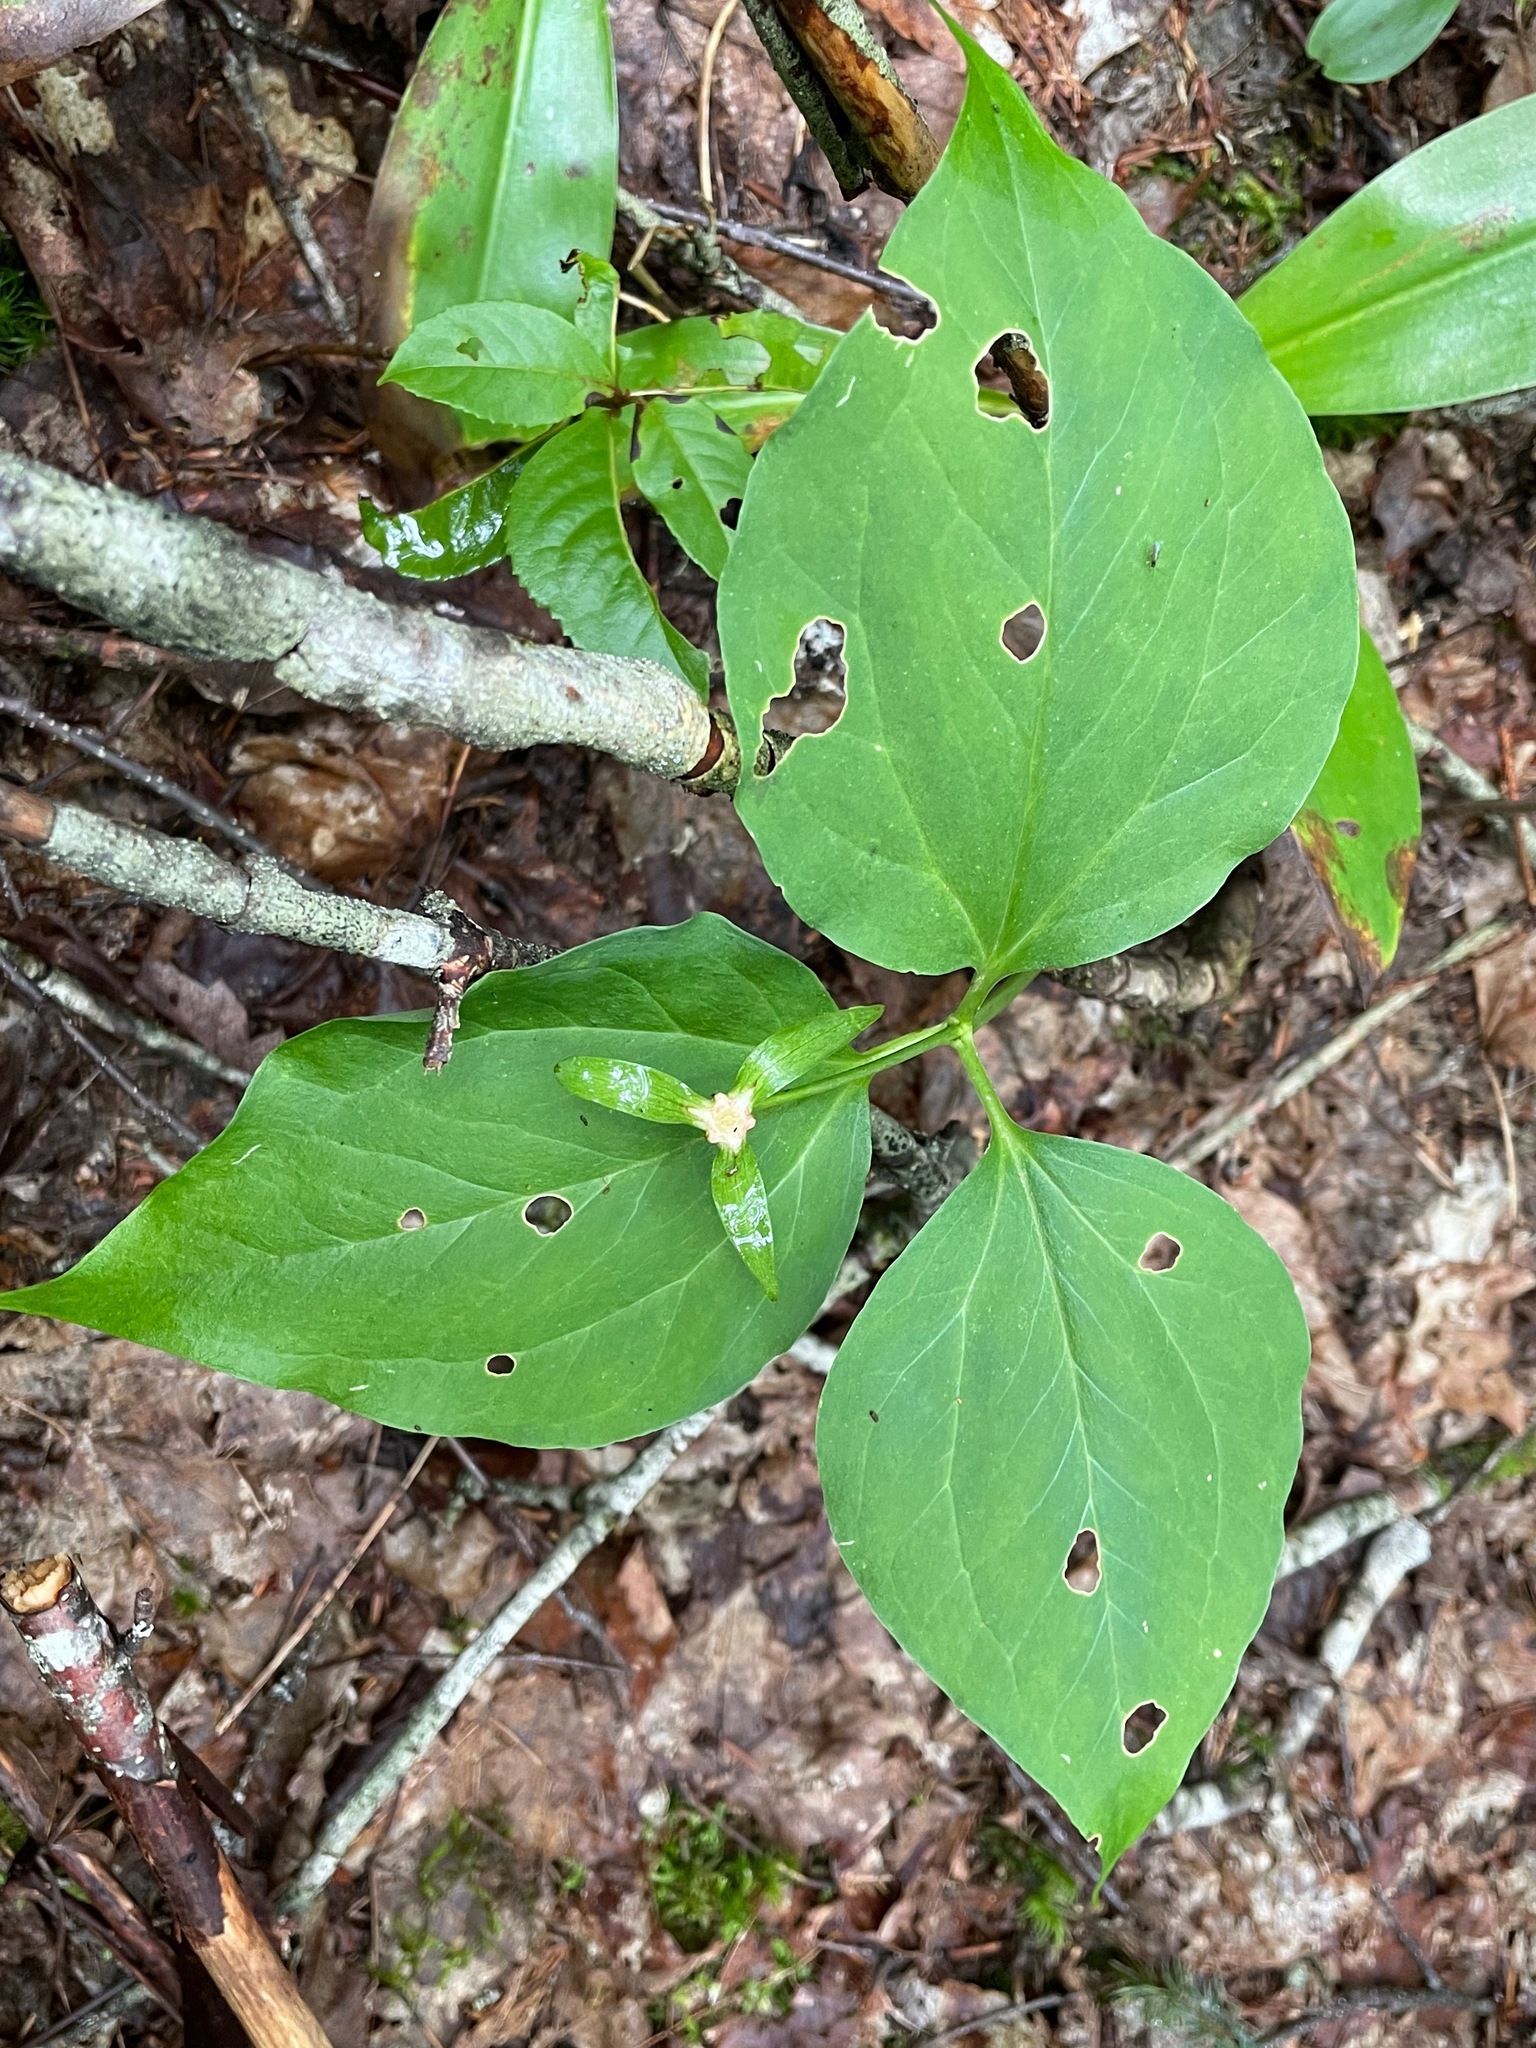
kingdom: Plantae
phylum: Tracheophyta
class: Liliopsida
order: Liliales
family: Melanthiaceae
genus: Trillium
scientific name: Trillium undulatum
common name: Paint trillium
